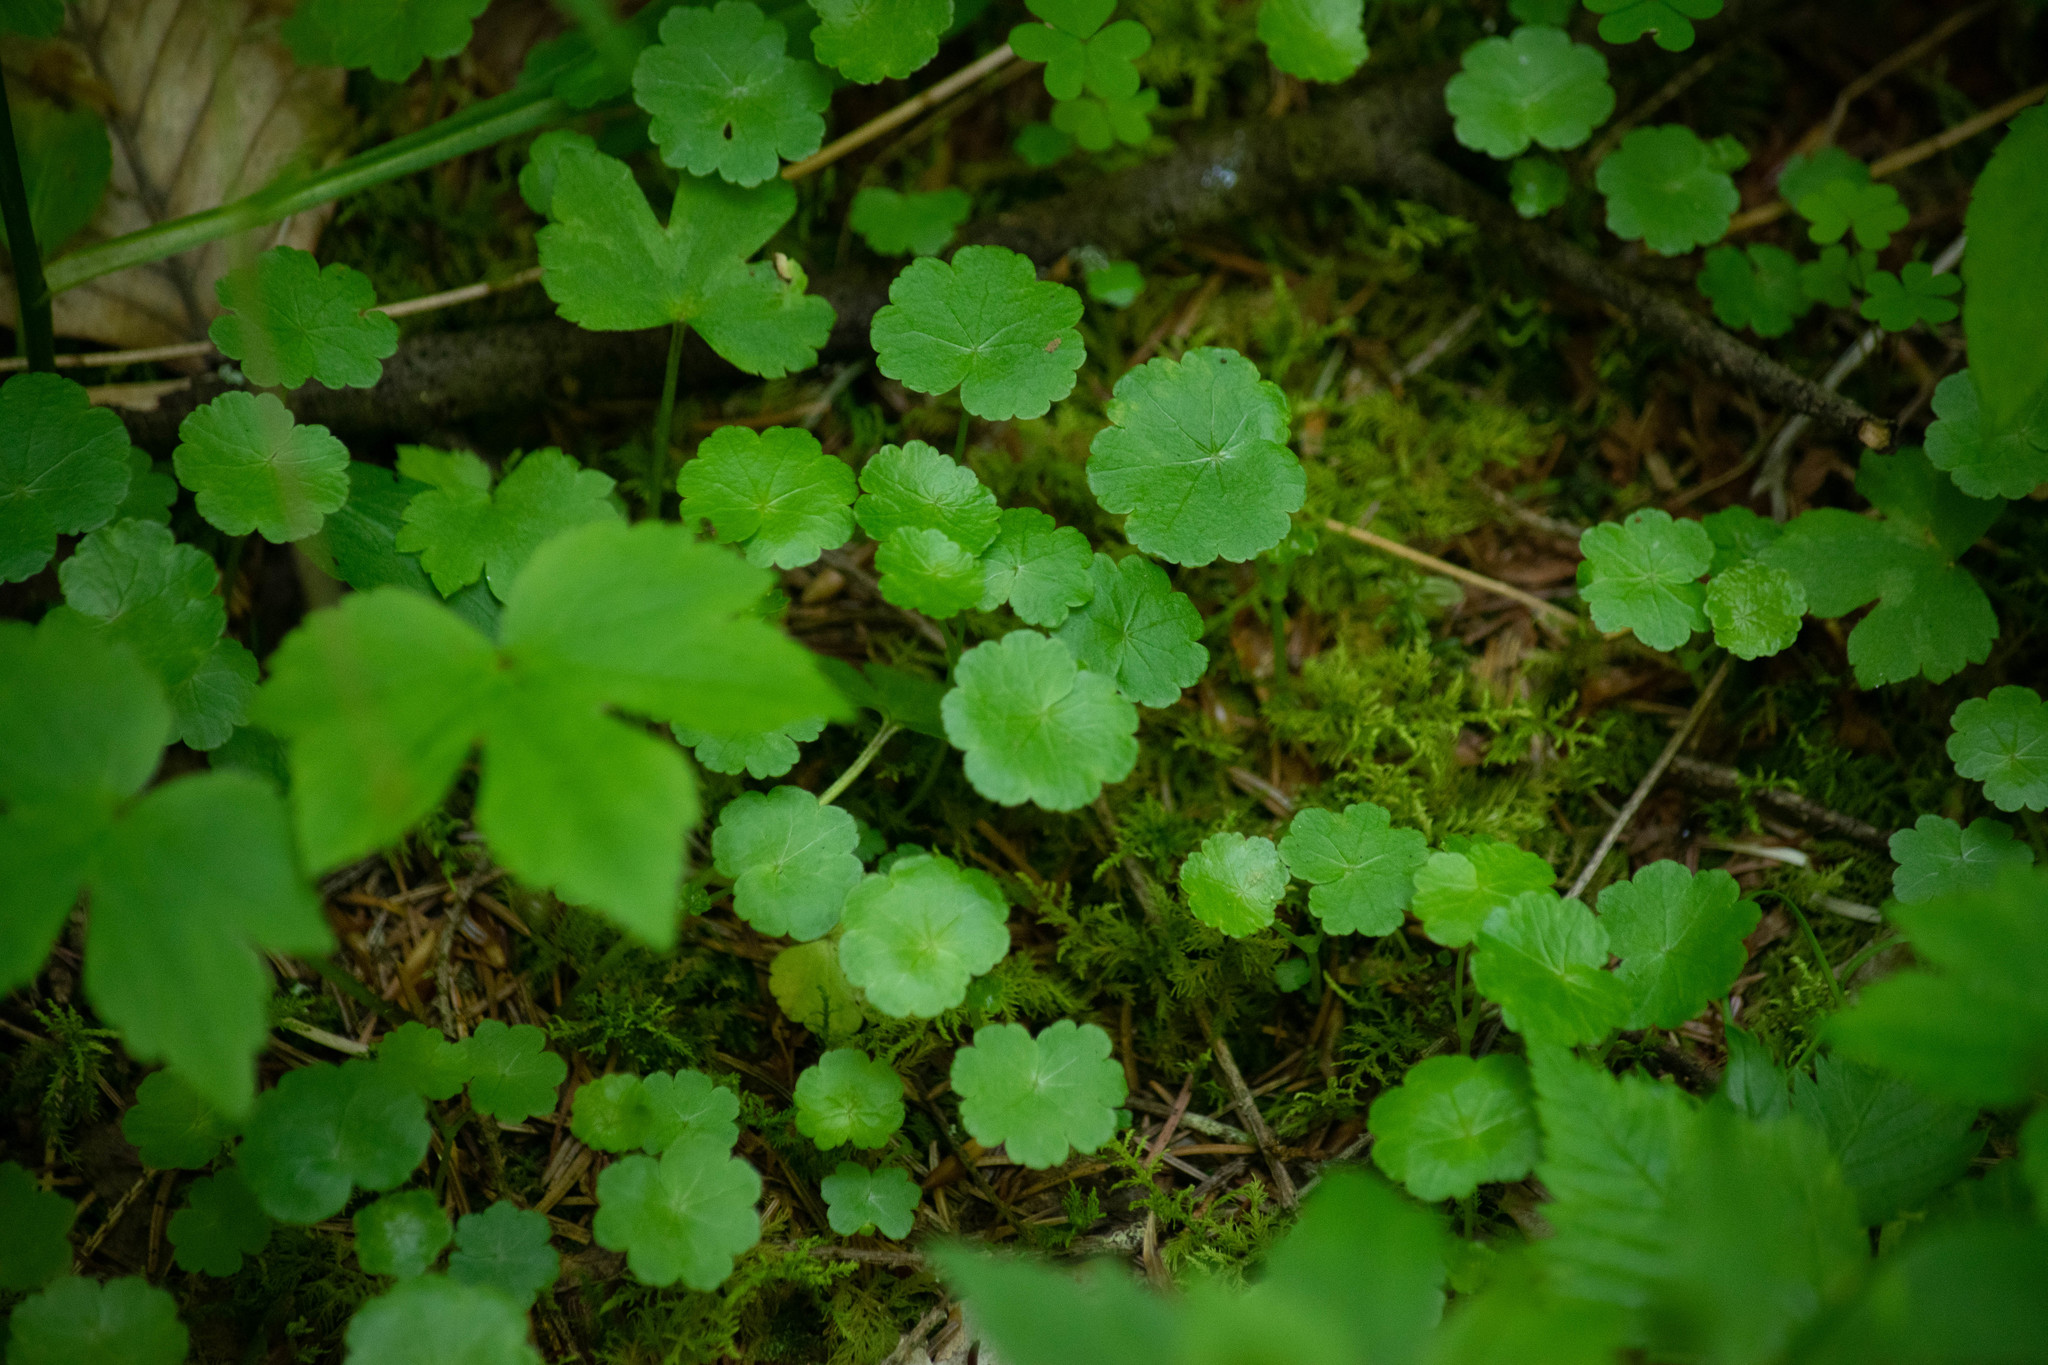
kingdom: Plantae
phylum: Tracheophyta
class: Magnoliopsida
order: Apiales
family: Araliaceae
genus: Hydrocotyle
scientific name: Hydrocotyle americana
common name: American water-pennywort
